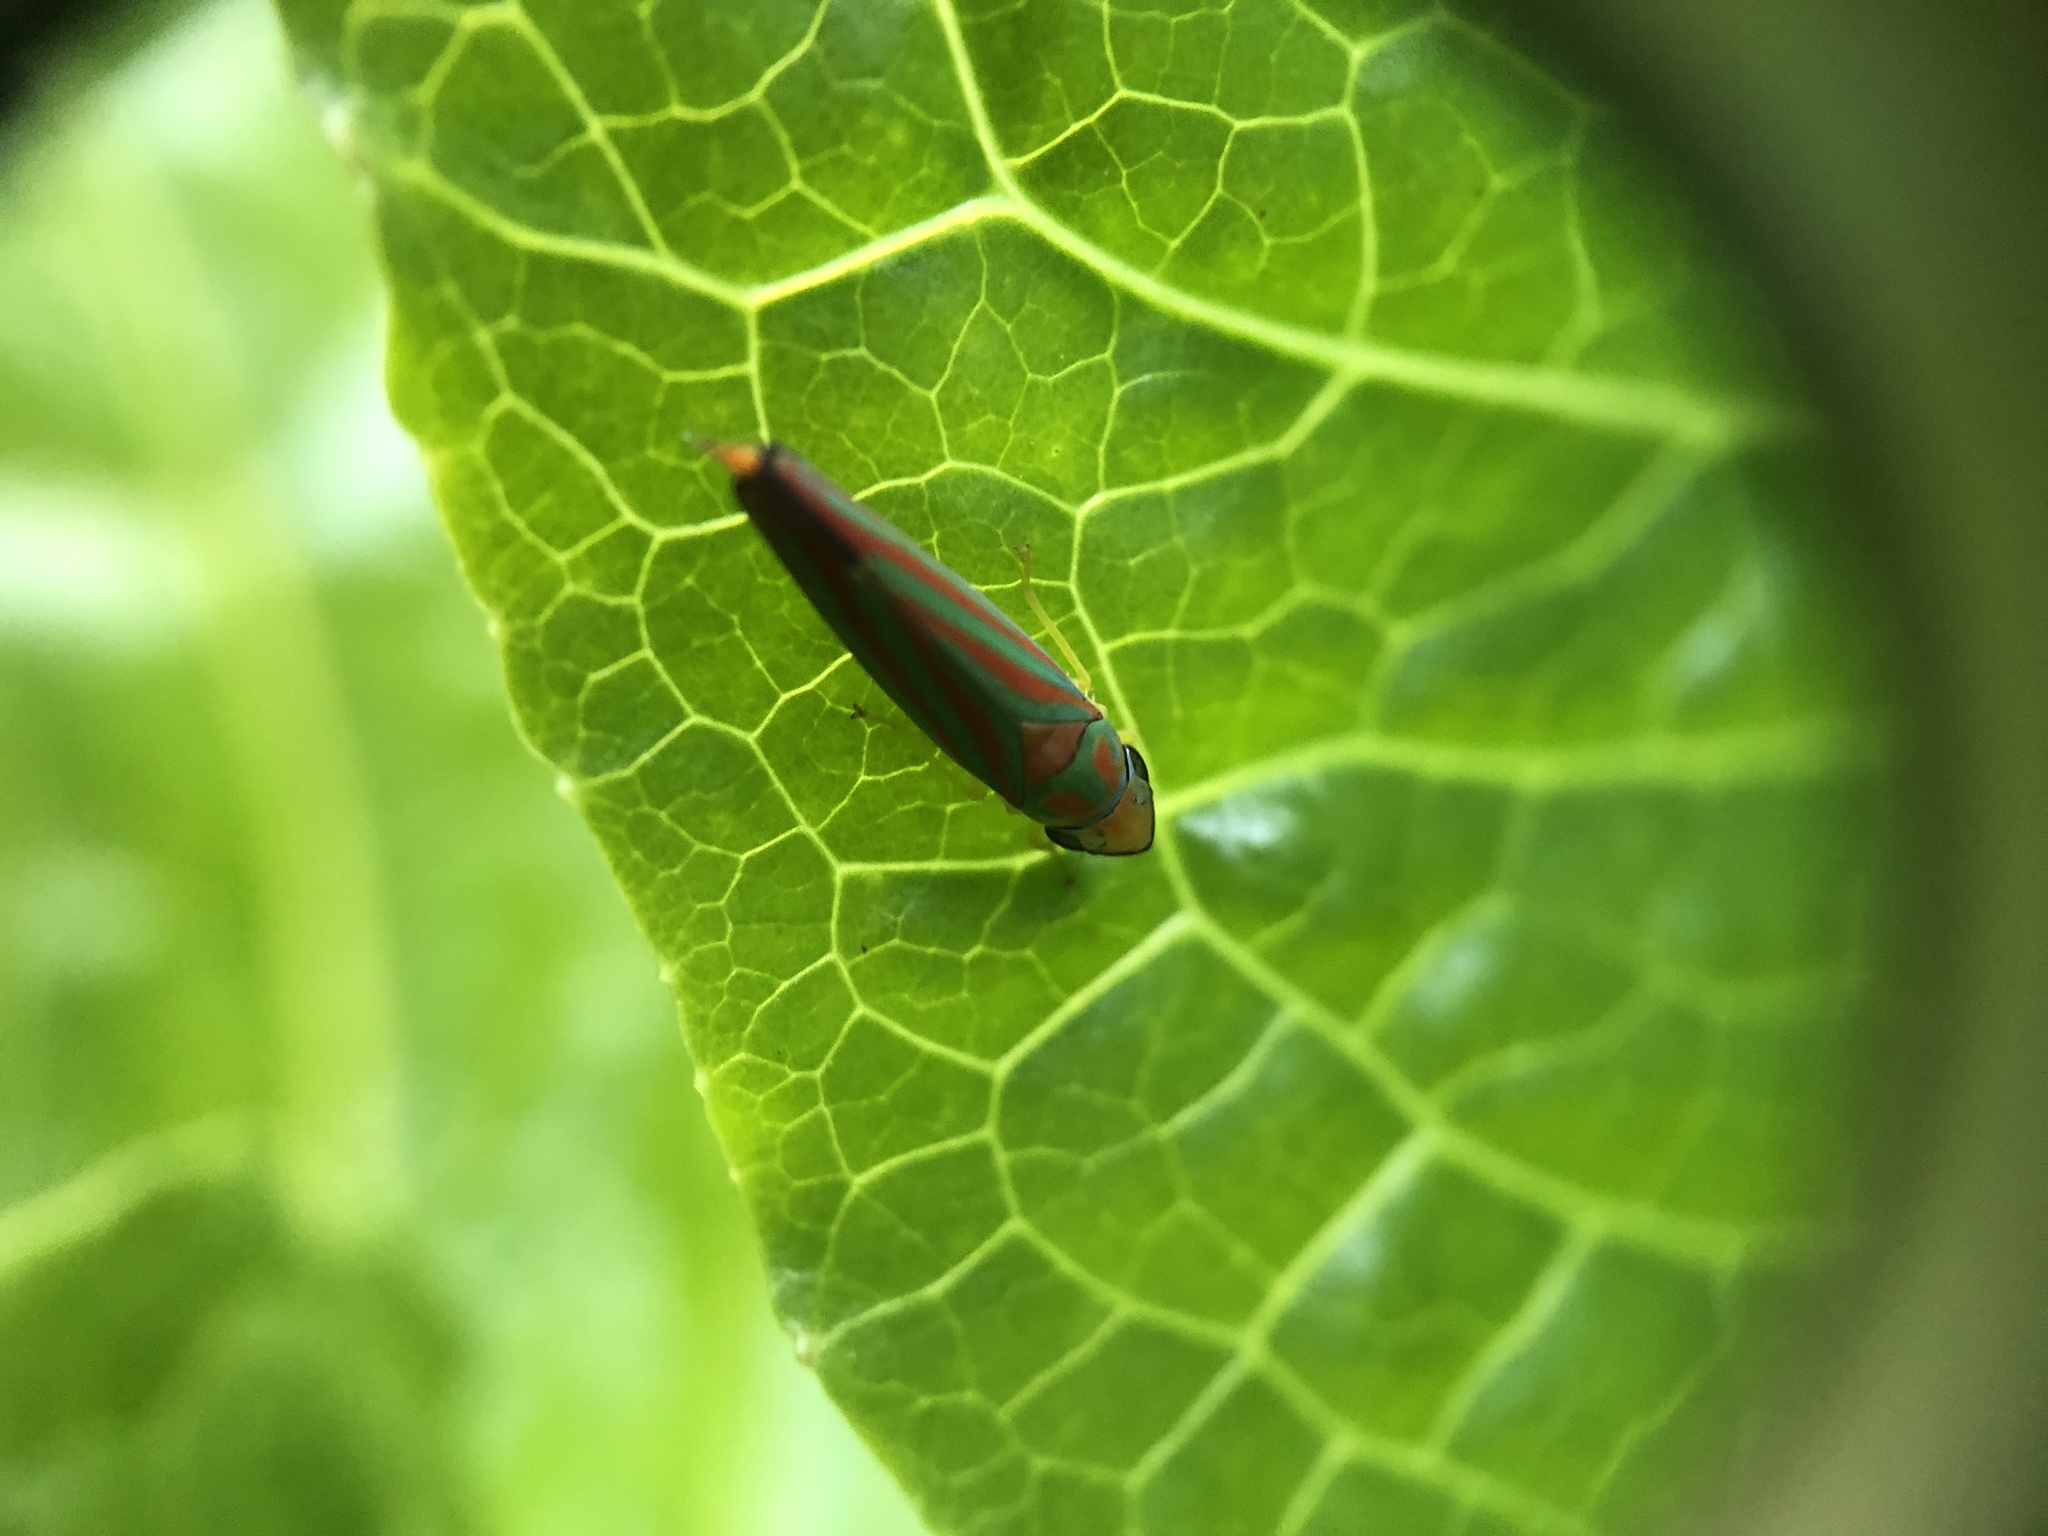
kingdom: Animalia
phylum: Arthropoda
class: Insecta
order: Hemiptera
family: Cicadellidae
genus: Graphocephala
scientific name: Graphocephala coccinea
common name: Candy-striped leafhopper
